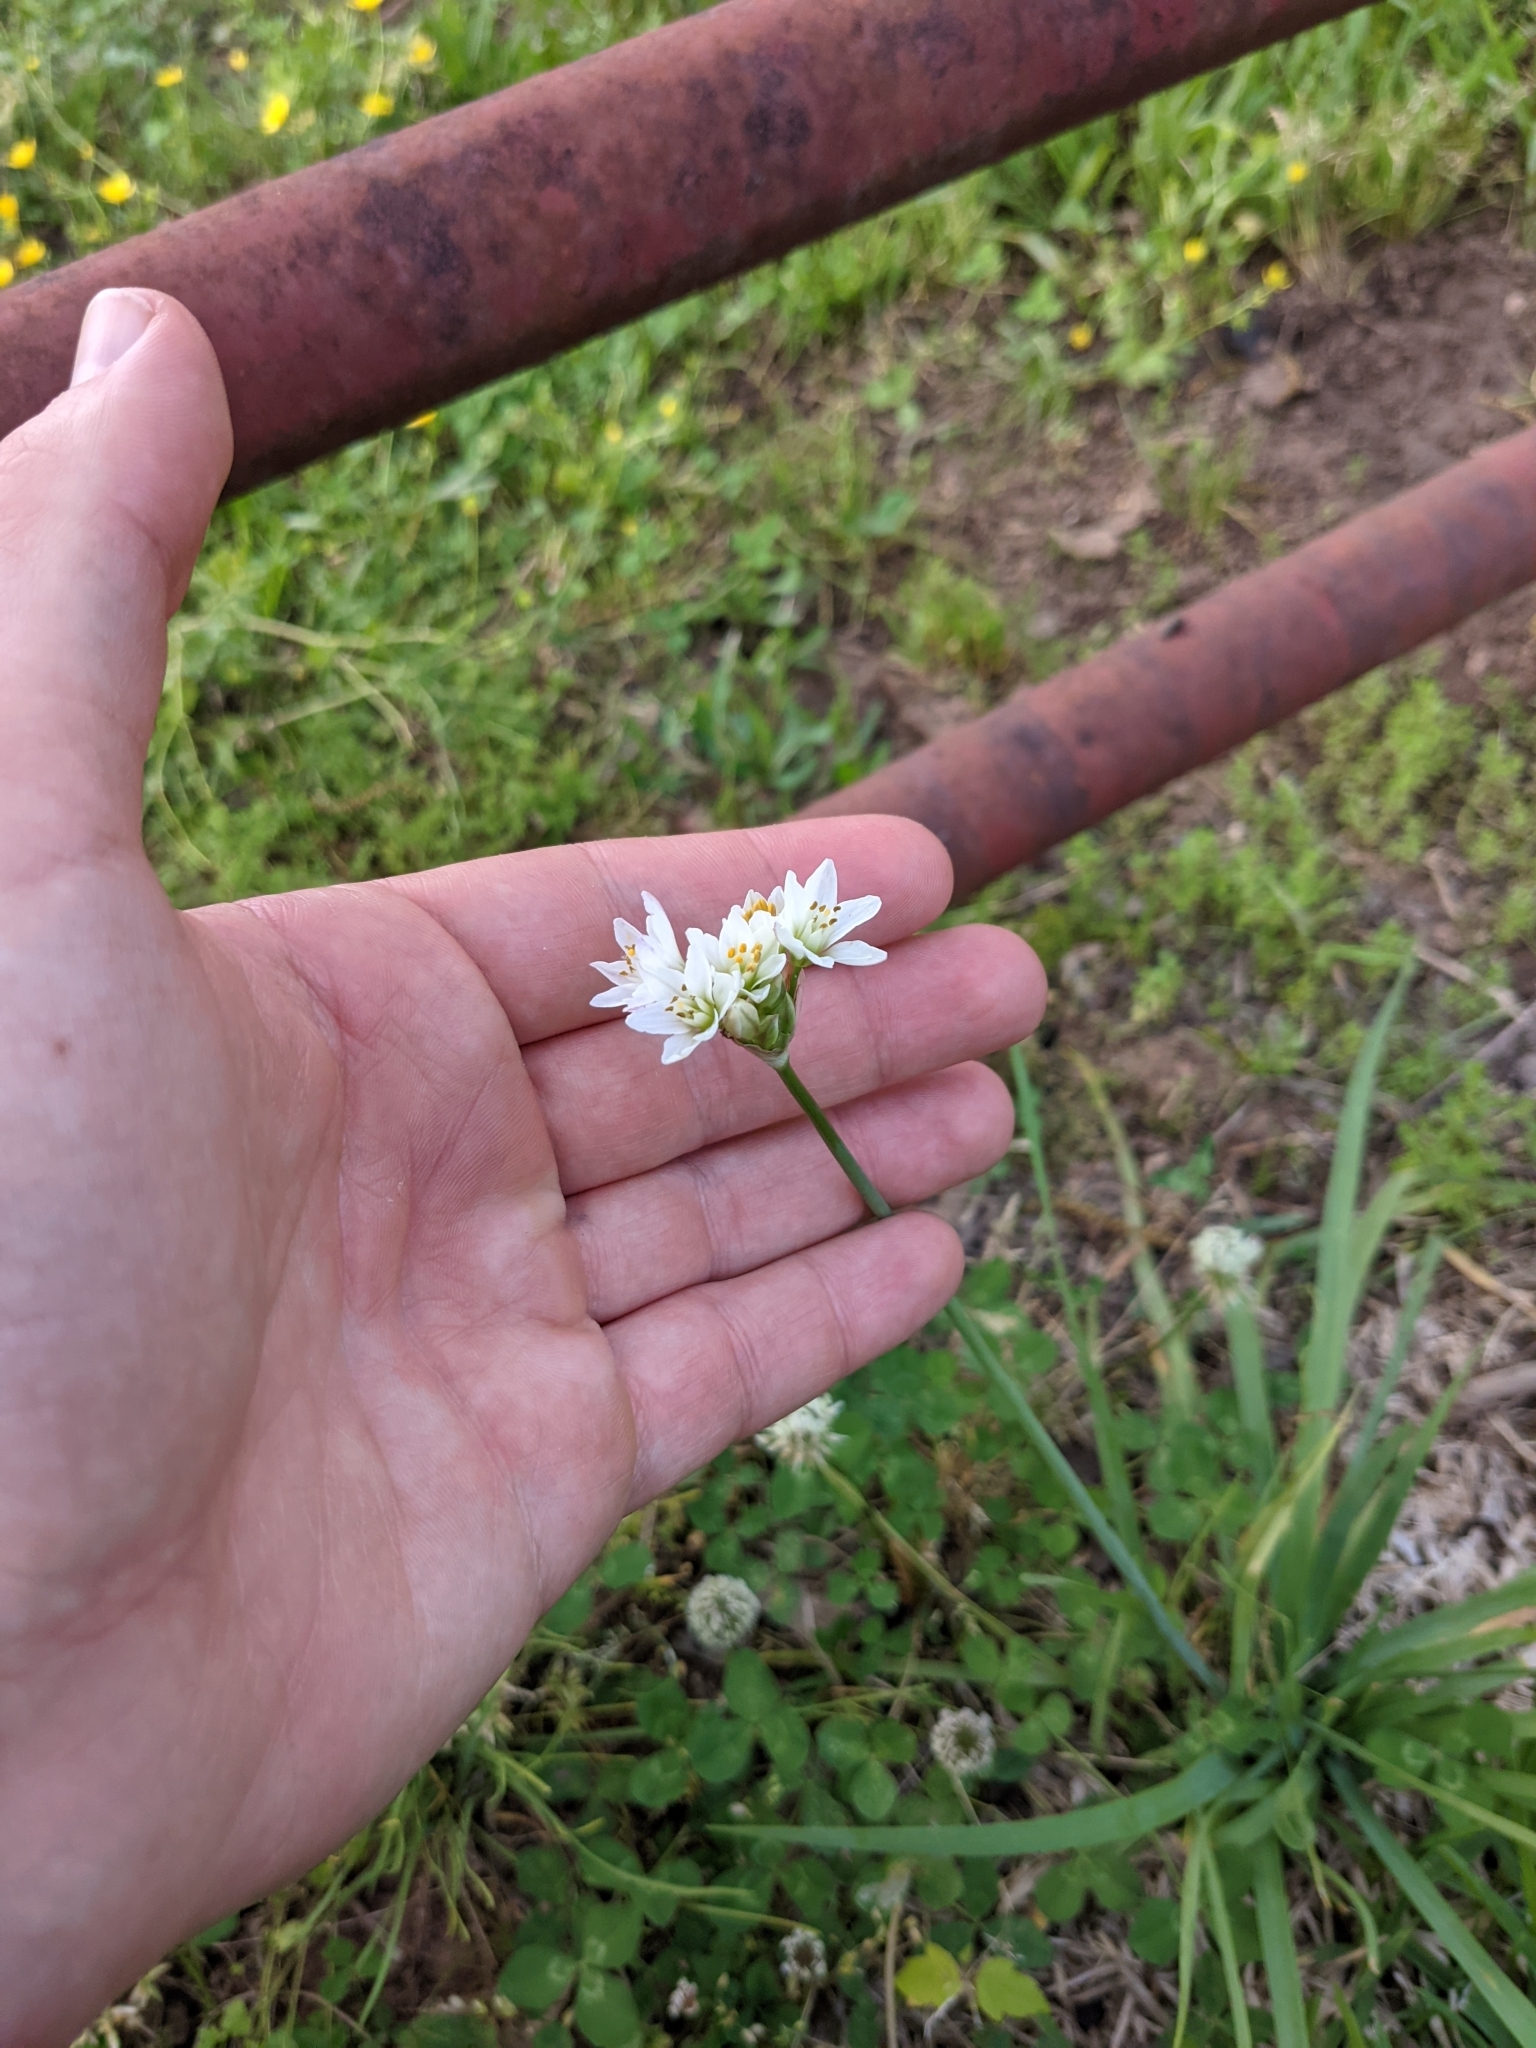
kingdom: Plantae
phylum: Tracheophyta
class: Liliopsida
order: Asparagales
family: Amaryllidaceae
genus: Nothoscordum
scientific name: Nothoscordum gracile
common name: Slender false garlic
